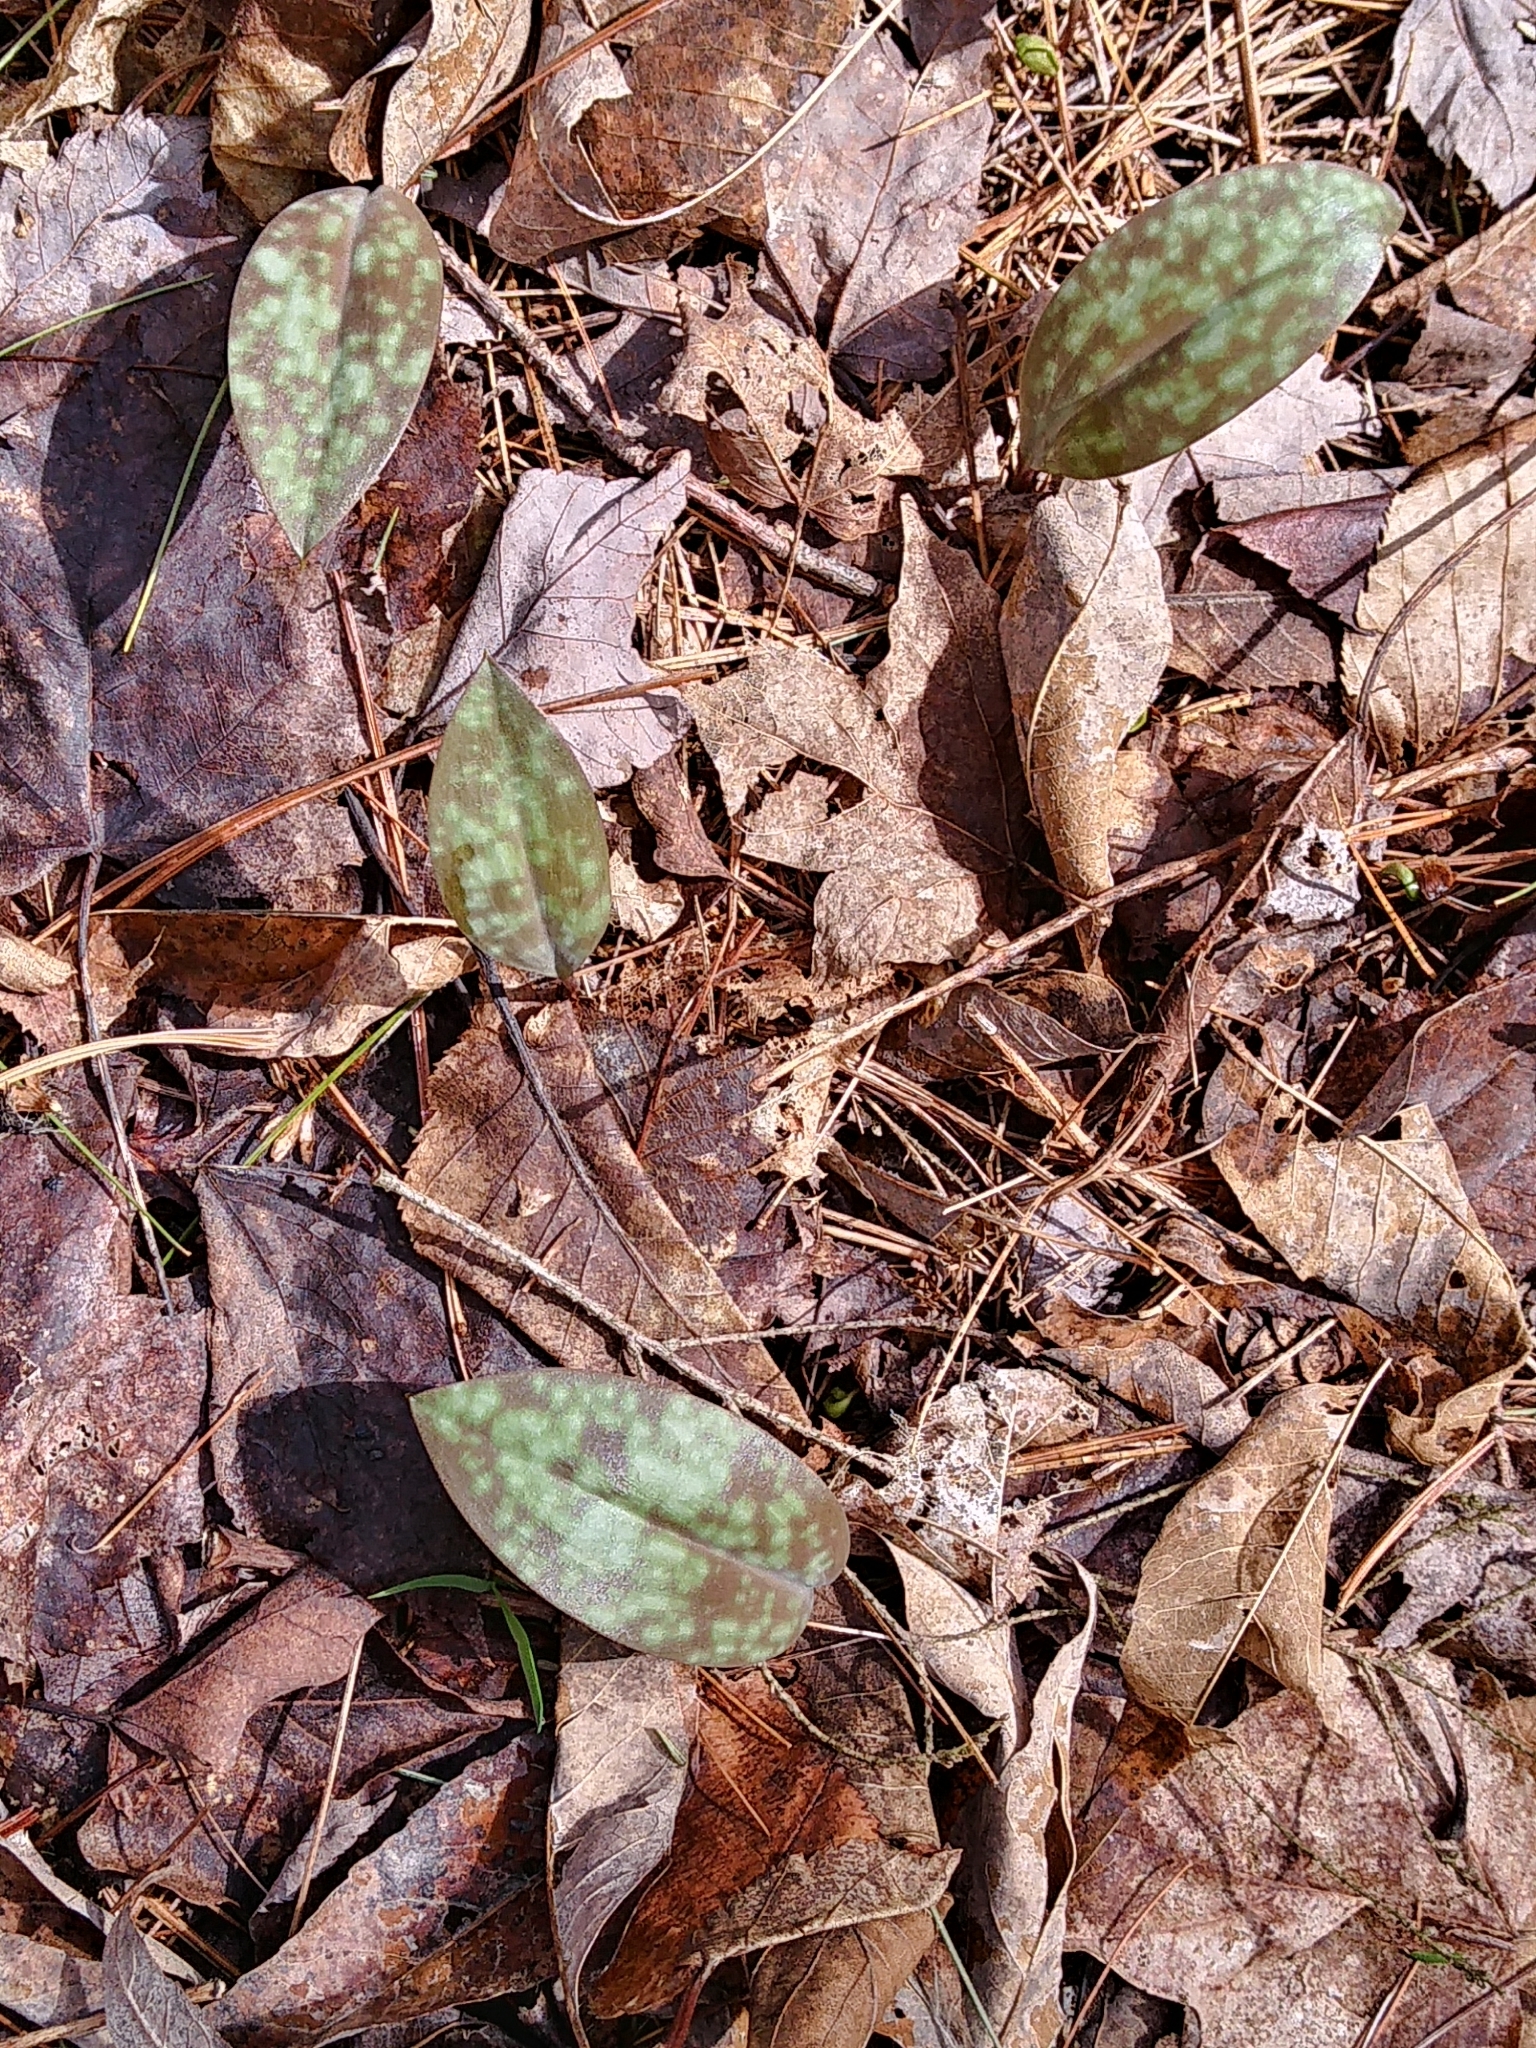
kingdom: Plantae
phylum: Tracheophyta
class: Liliopsida
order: Liliales
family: Liliaceae
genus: Erythronium
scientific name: Erythronium americanum
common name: Yellow adder's-tongue
